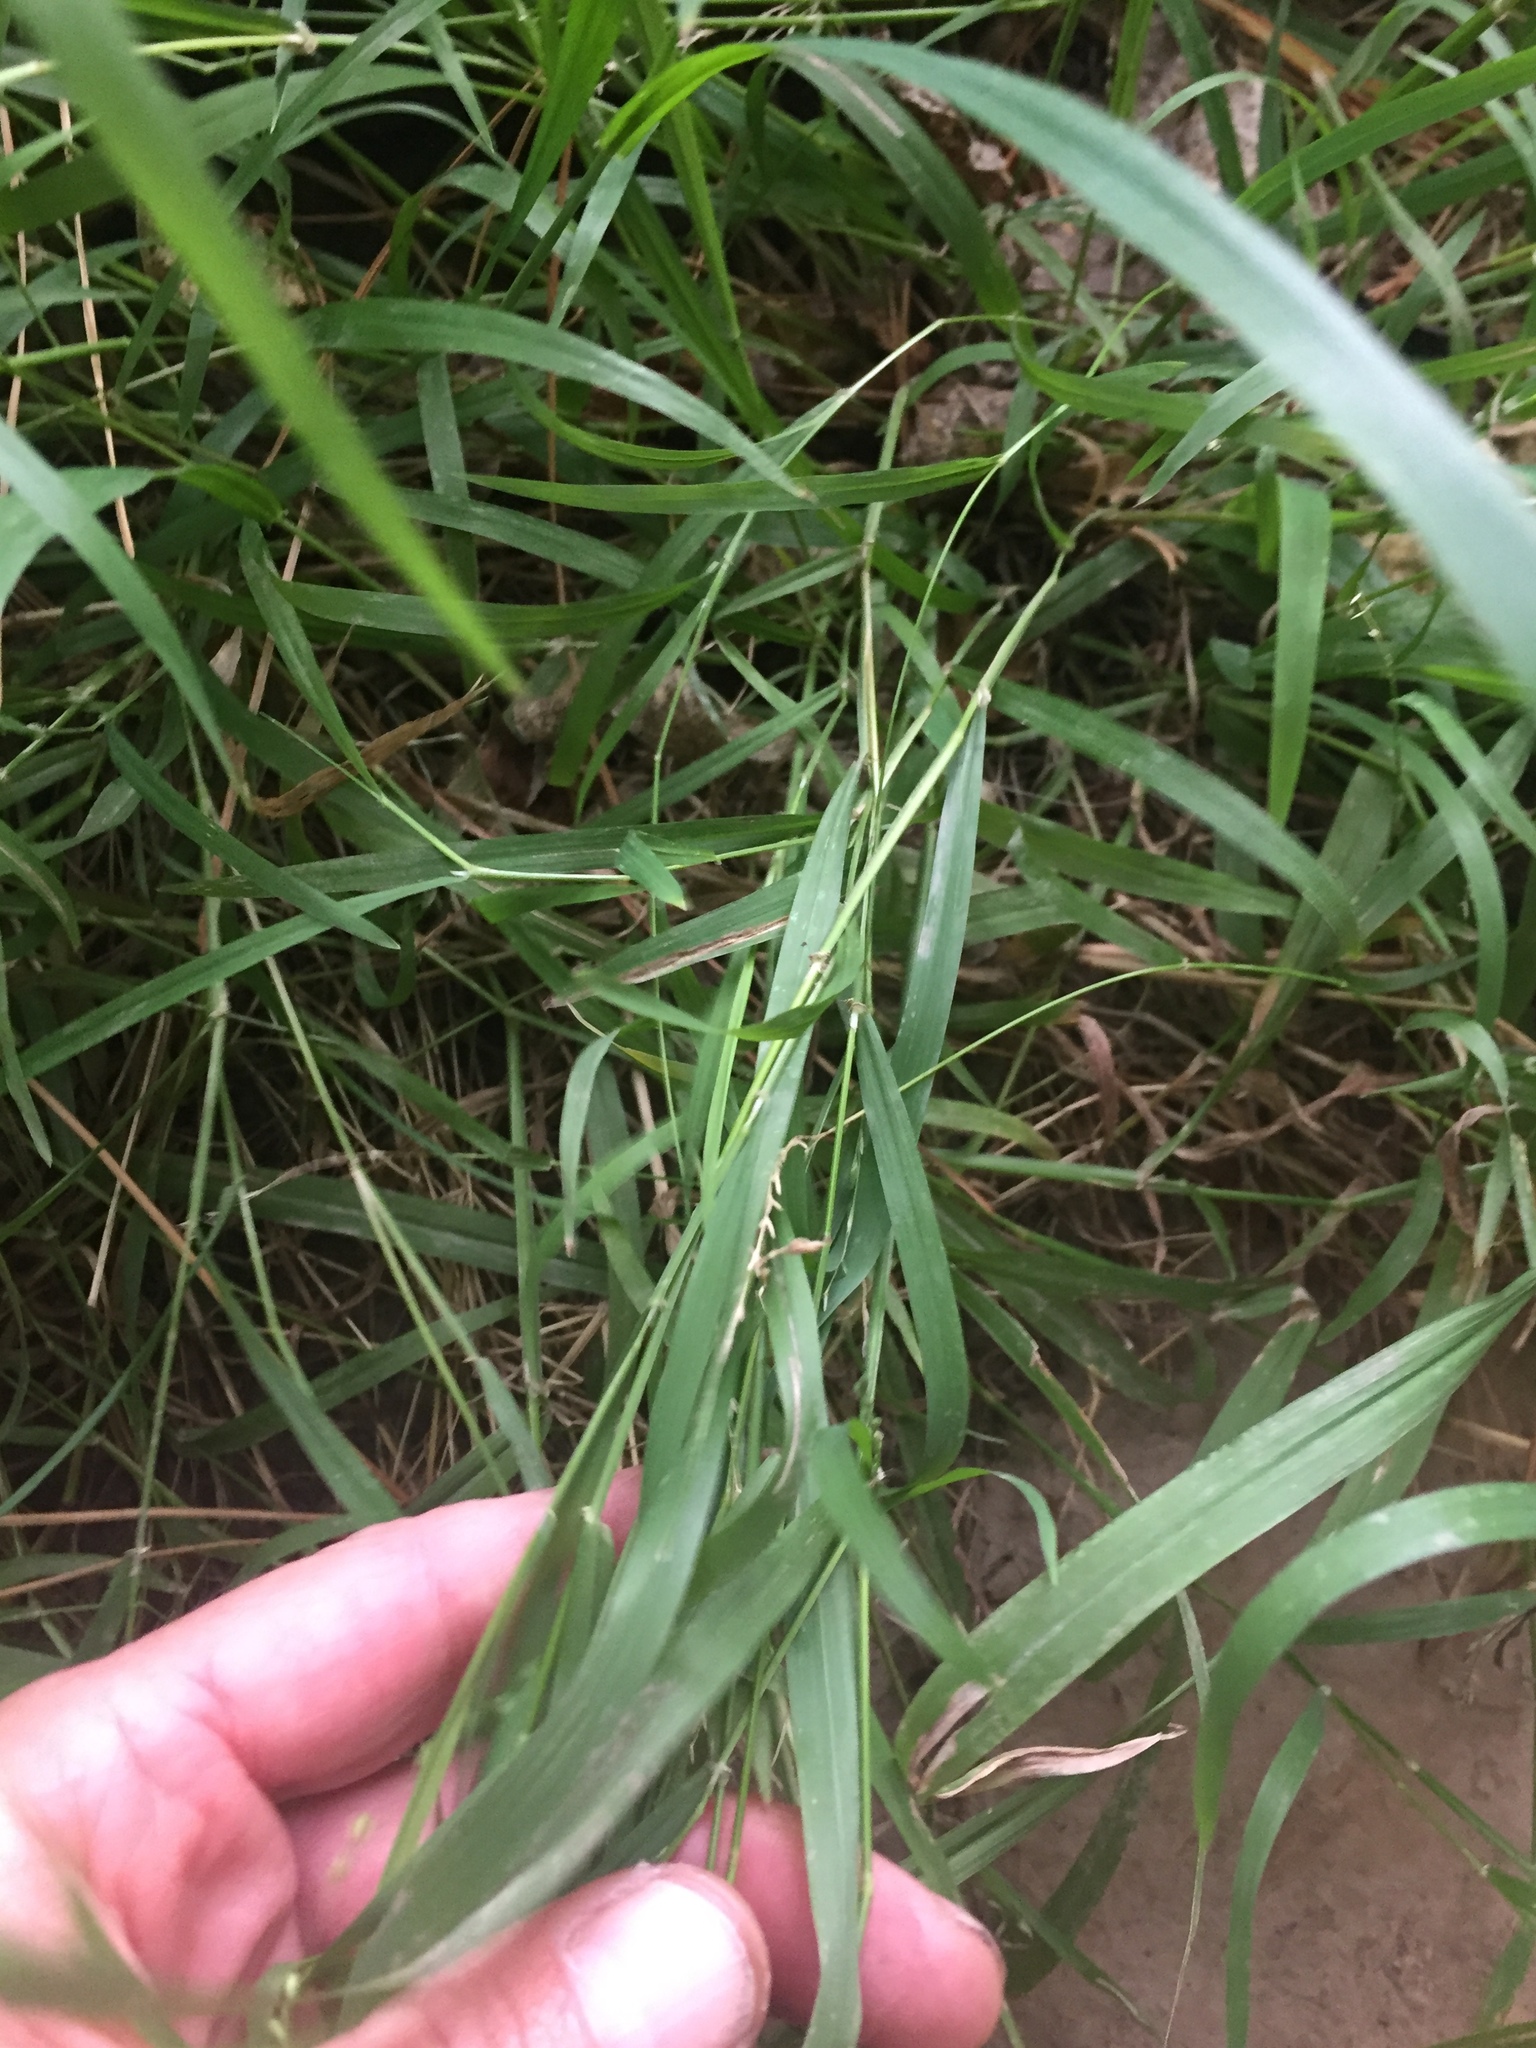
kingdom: Plantae
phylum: Tracheophyta
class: Liliopsida
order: Poales
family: Poaceae
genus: Ehrharta
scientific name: Ehrharta erecta
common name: Panic veldtgrass
